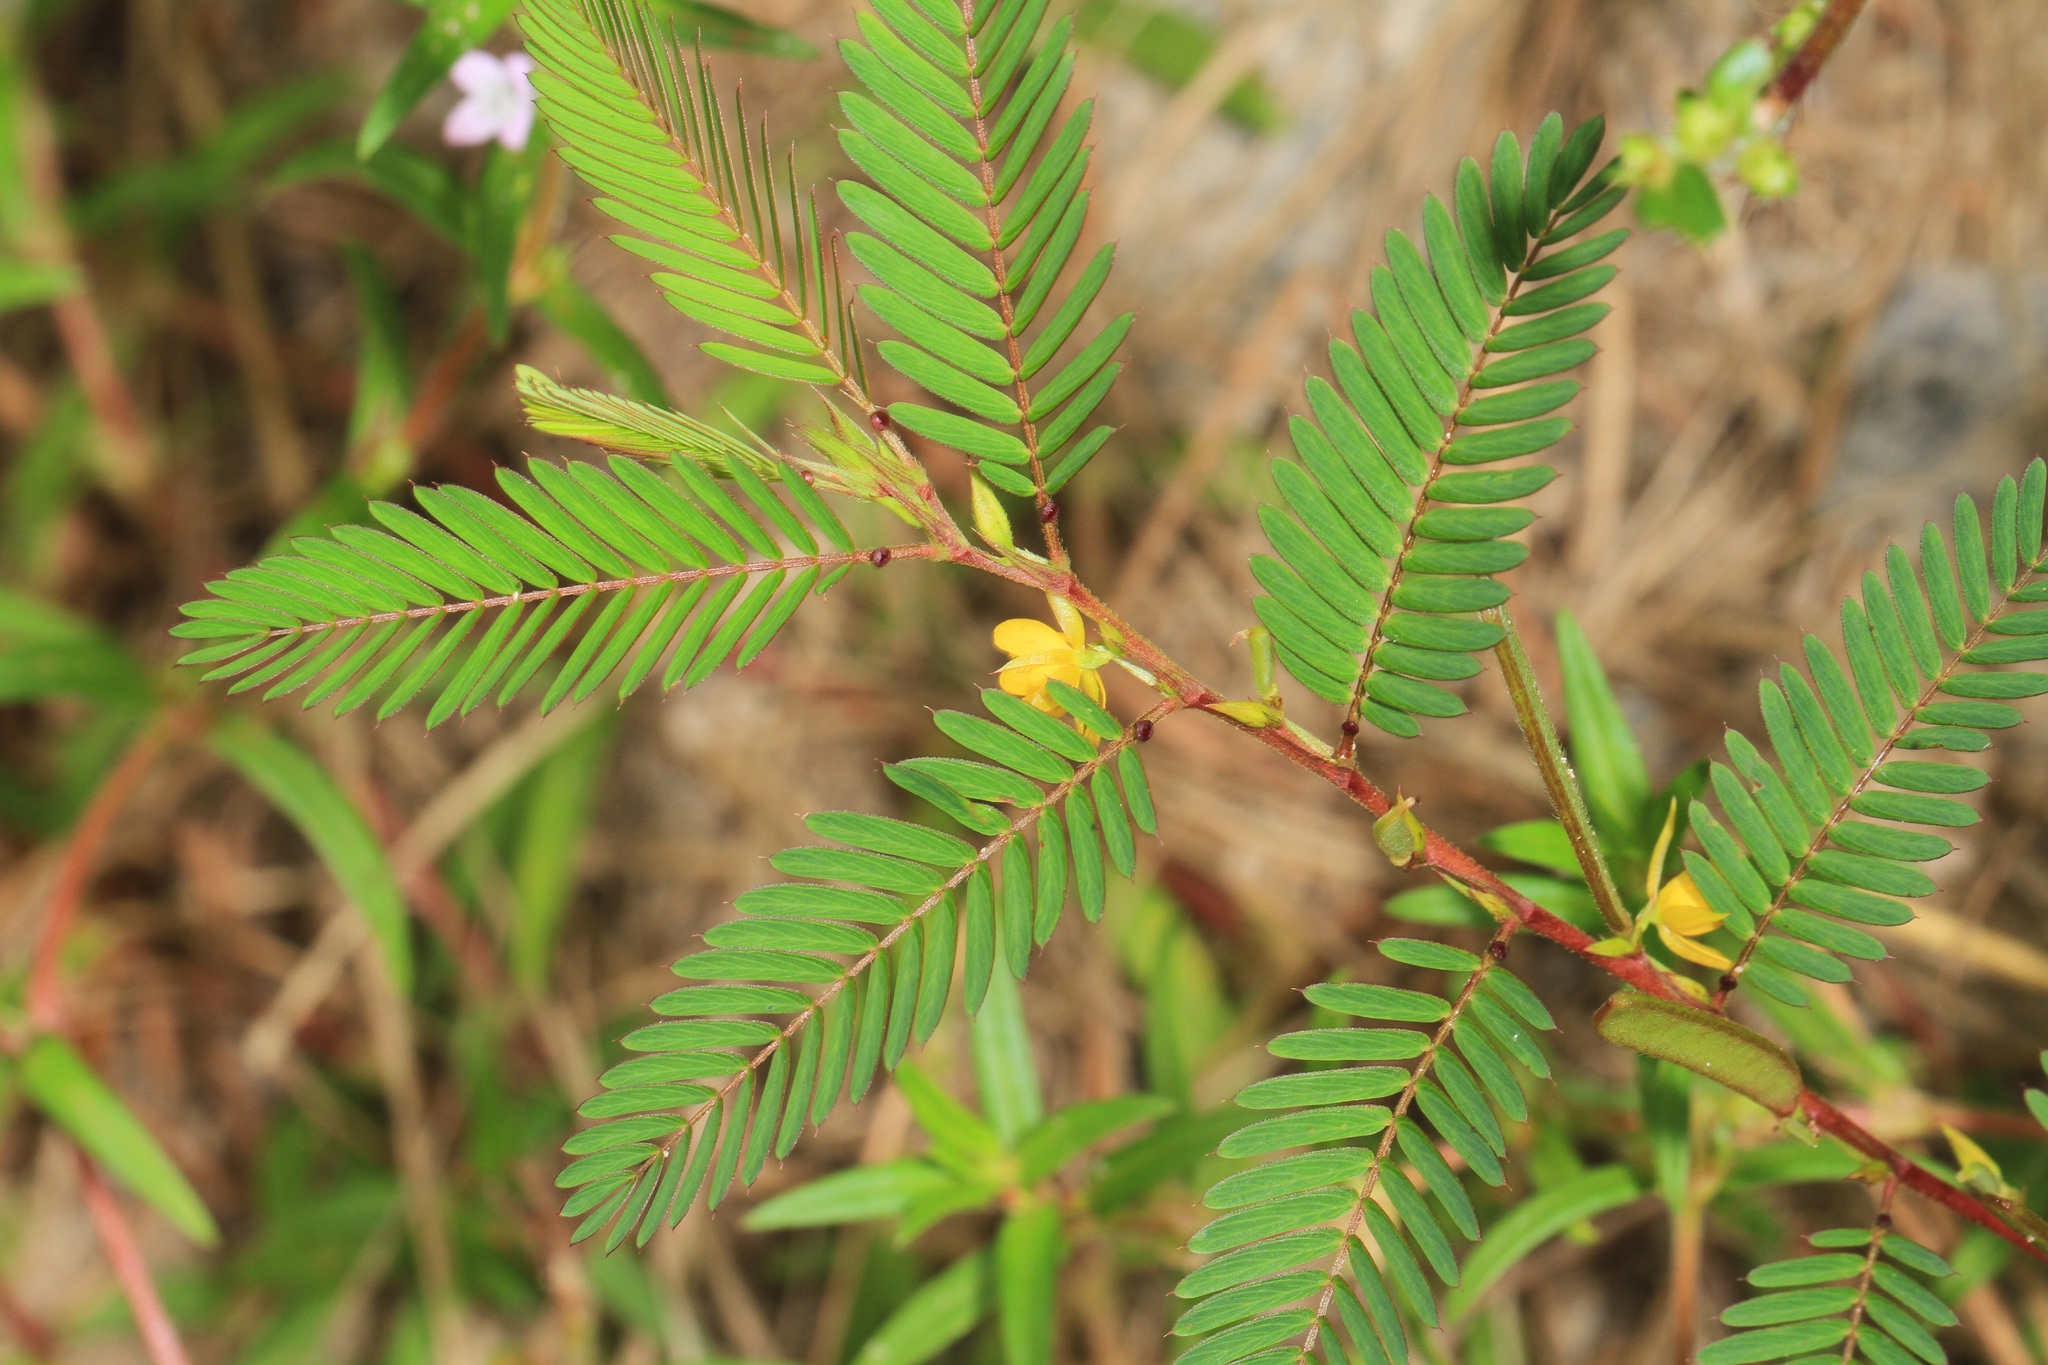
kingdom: Plantae
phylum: Tracheophyta
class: Magnoliopsida
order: Fabales
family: Fabaceae
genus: Chamaecrista
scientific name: Chamaecrista nictitans
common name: Sensitive cassia
